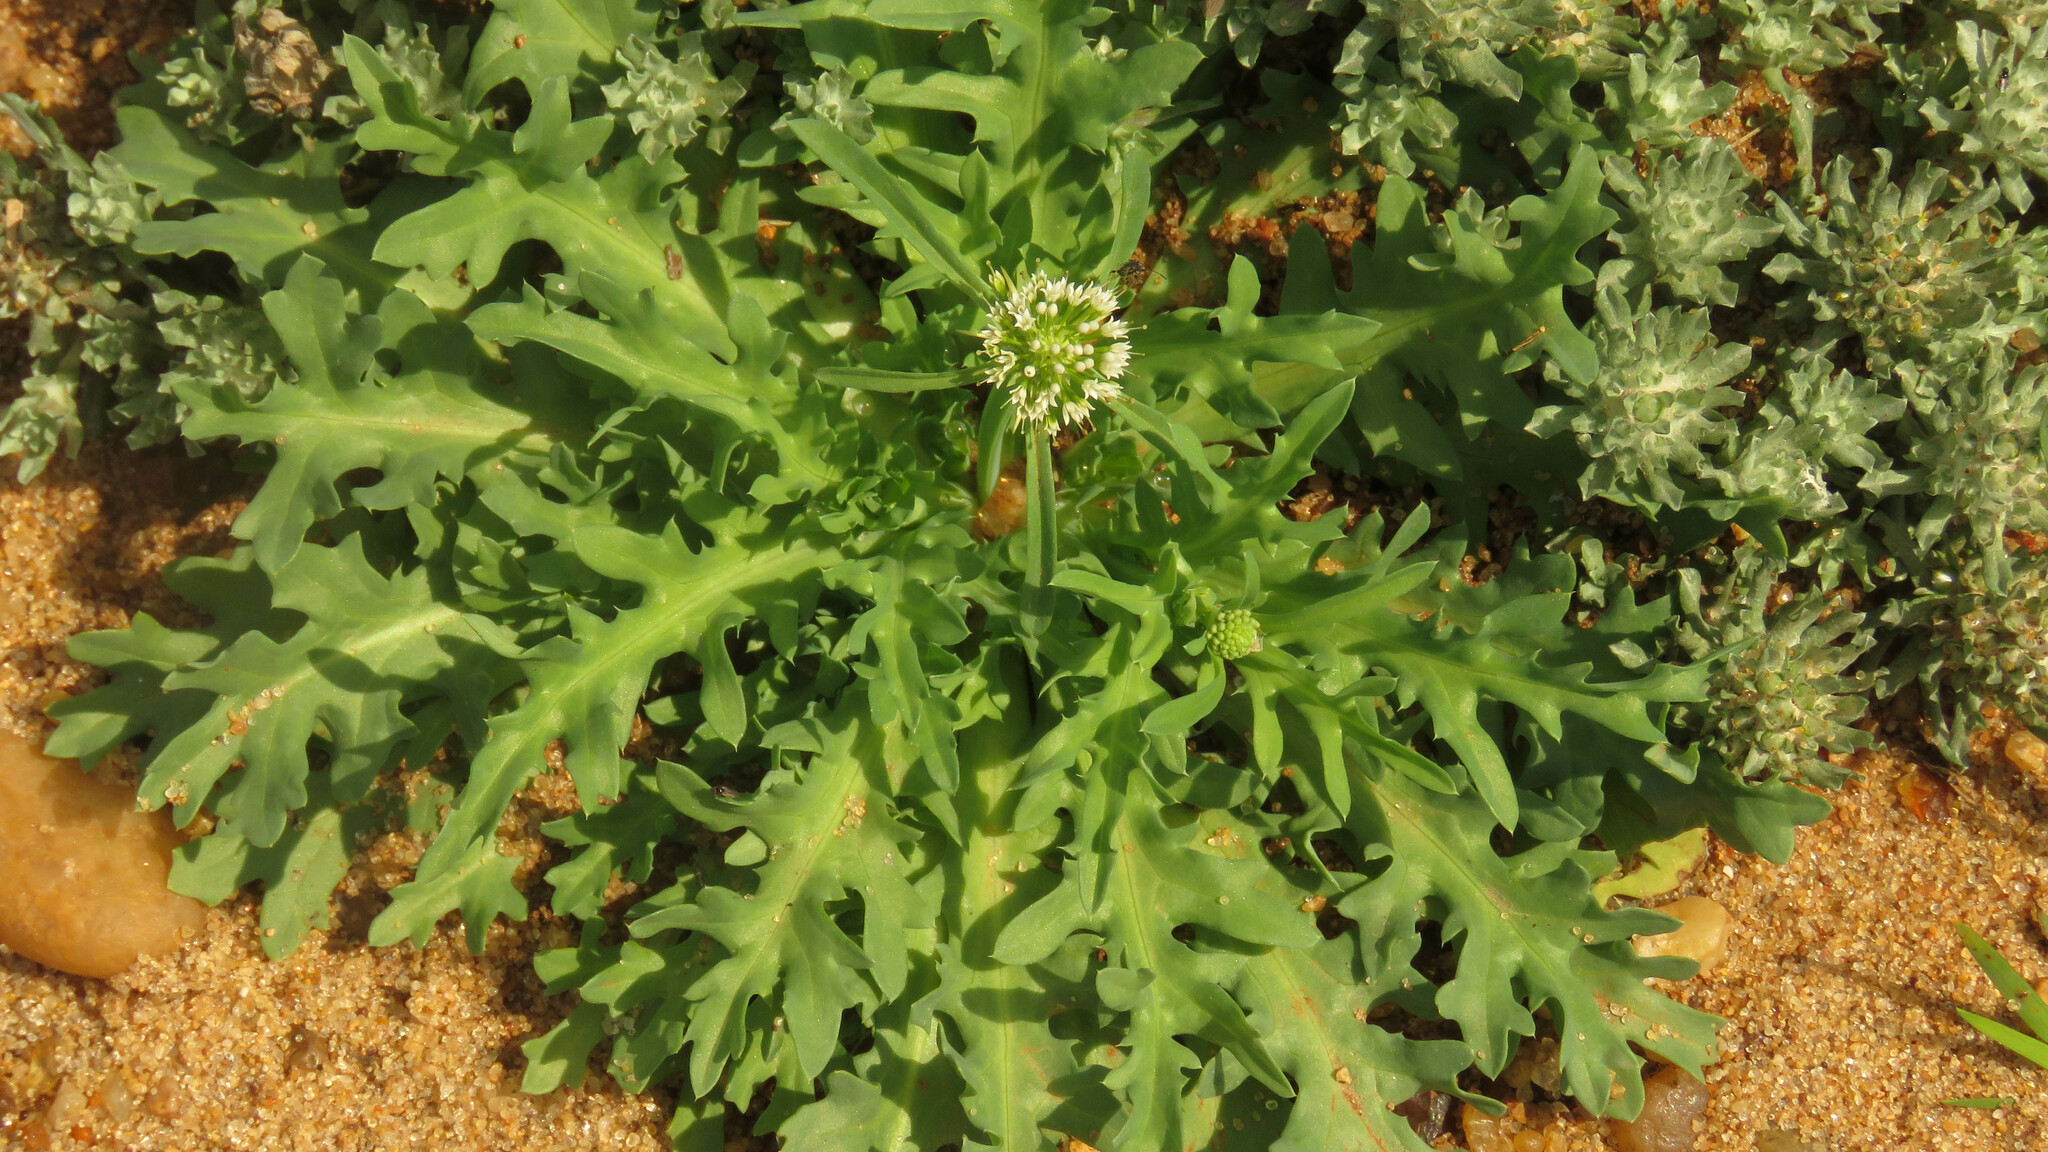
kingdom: Plantae
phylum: Tracheophyta
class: Magnoliopsida
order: Asterales
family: Calyceraceae
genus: Acicarpha
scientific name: Acicarpha tribuloides
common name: Madam gorgon
